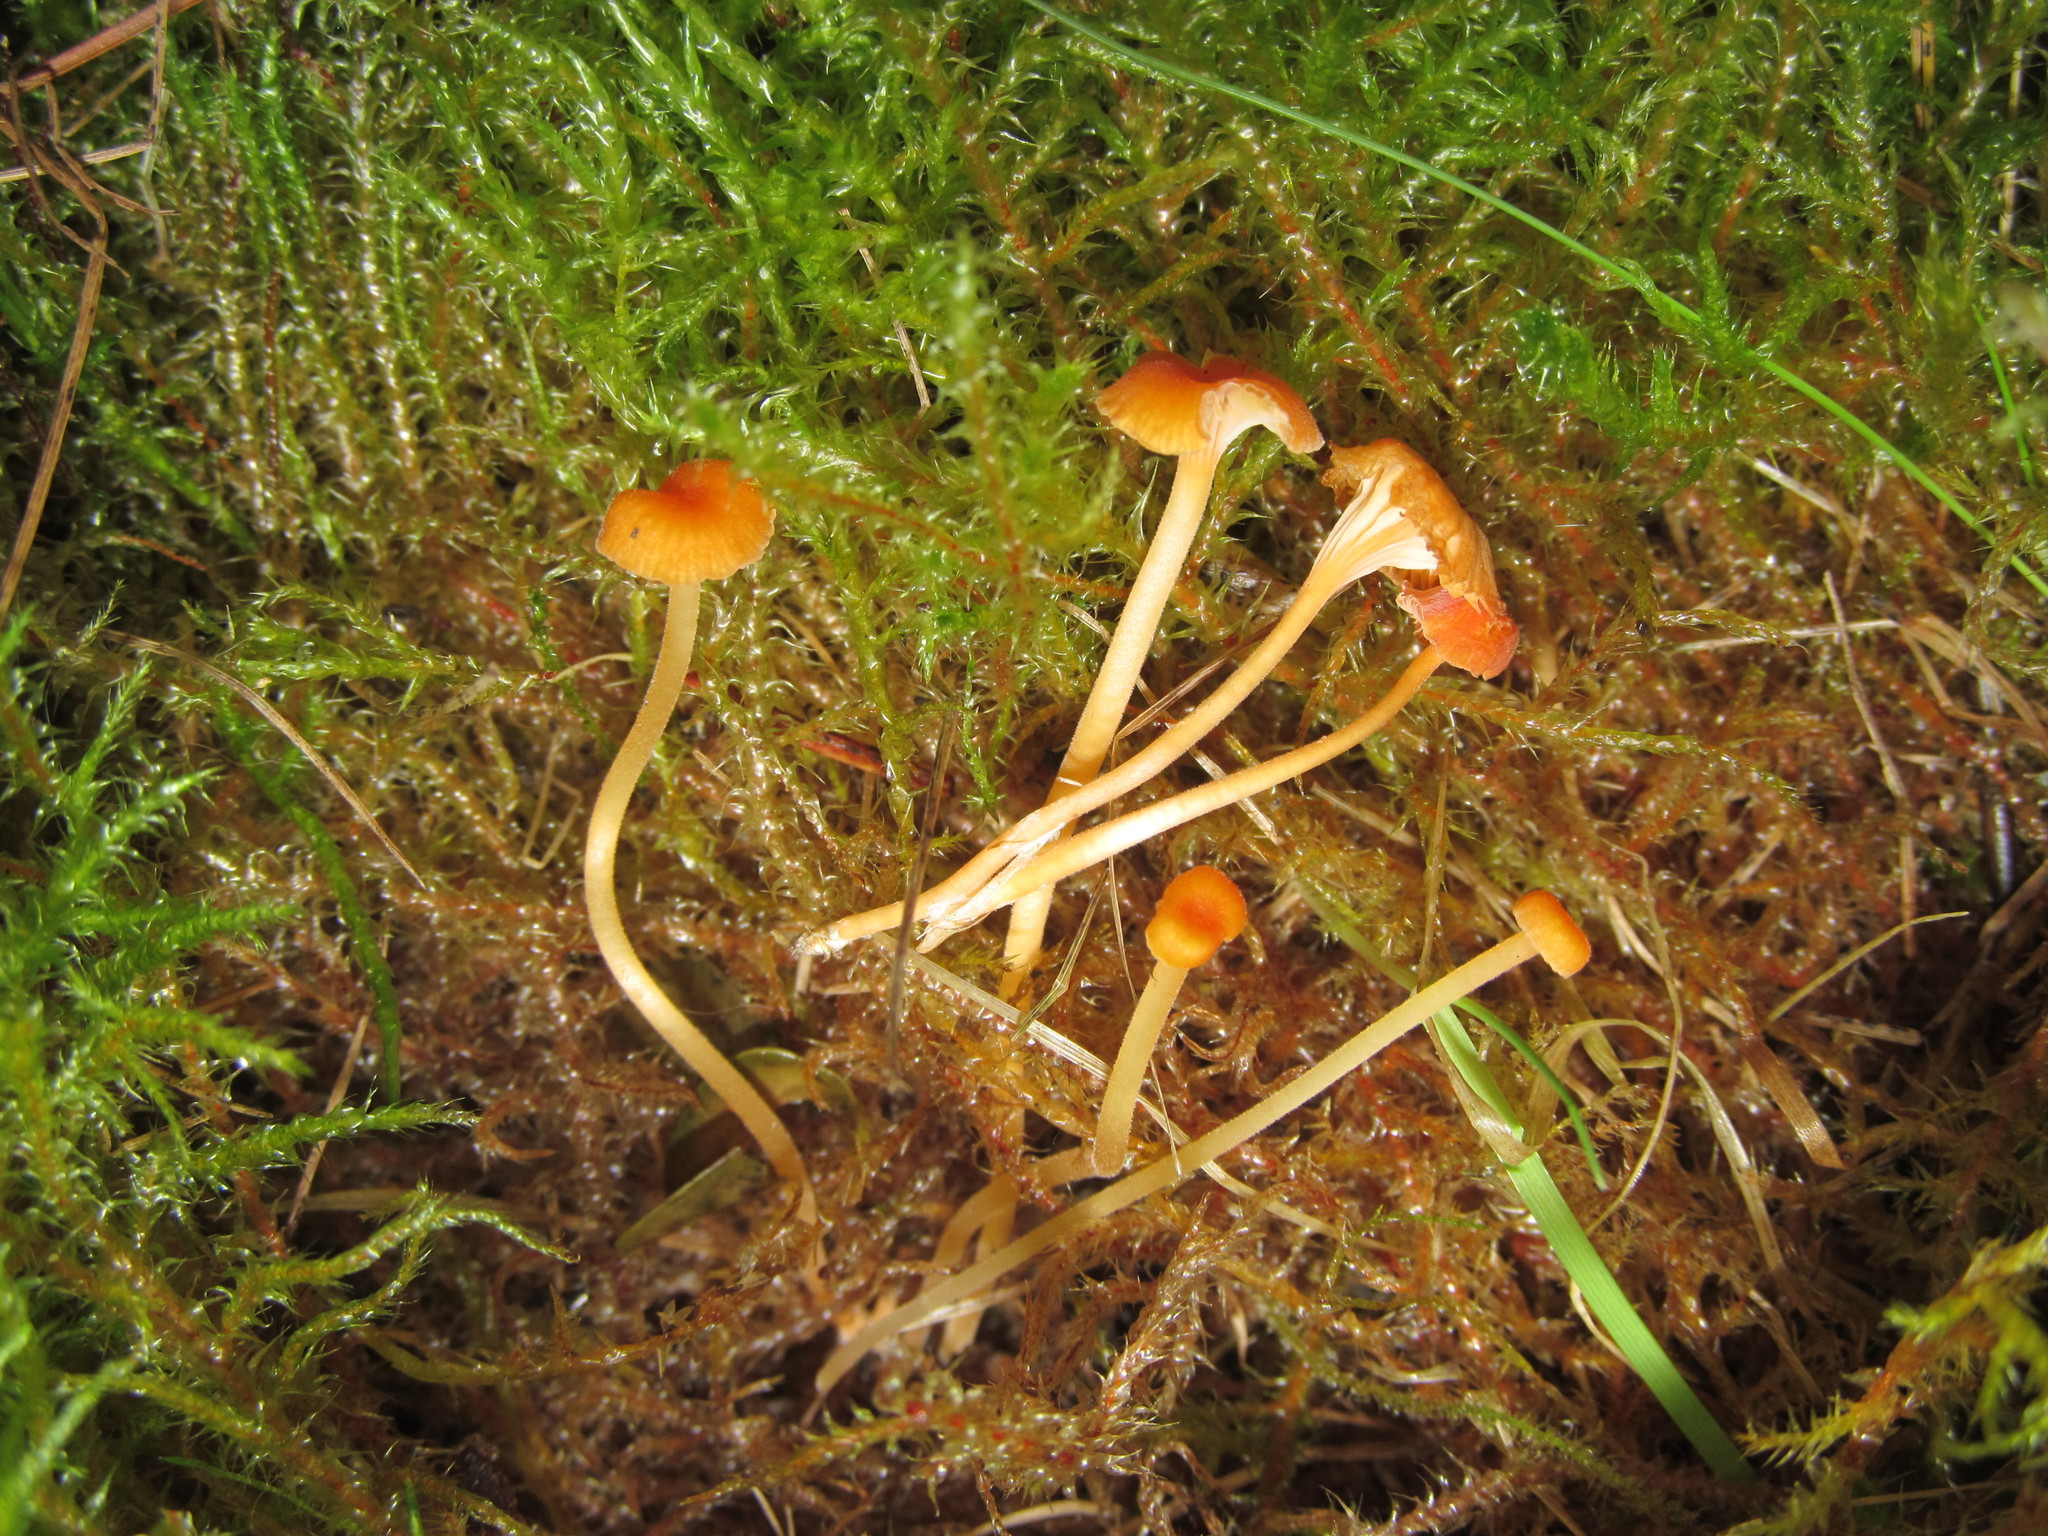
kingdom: Fungi
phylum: Basidiomycota
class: Agaricomycetes
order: Hymenochaetales
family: Rickenellaceae
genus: Rickenella
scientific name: Rickenella fibula
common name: Orange mosscap
